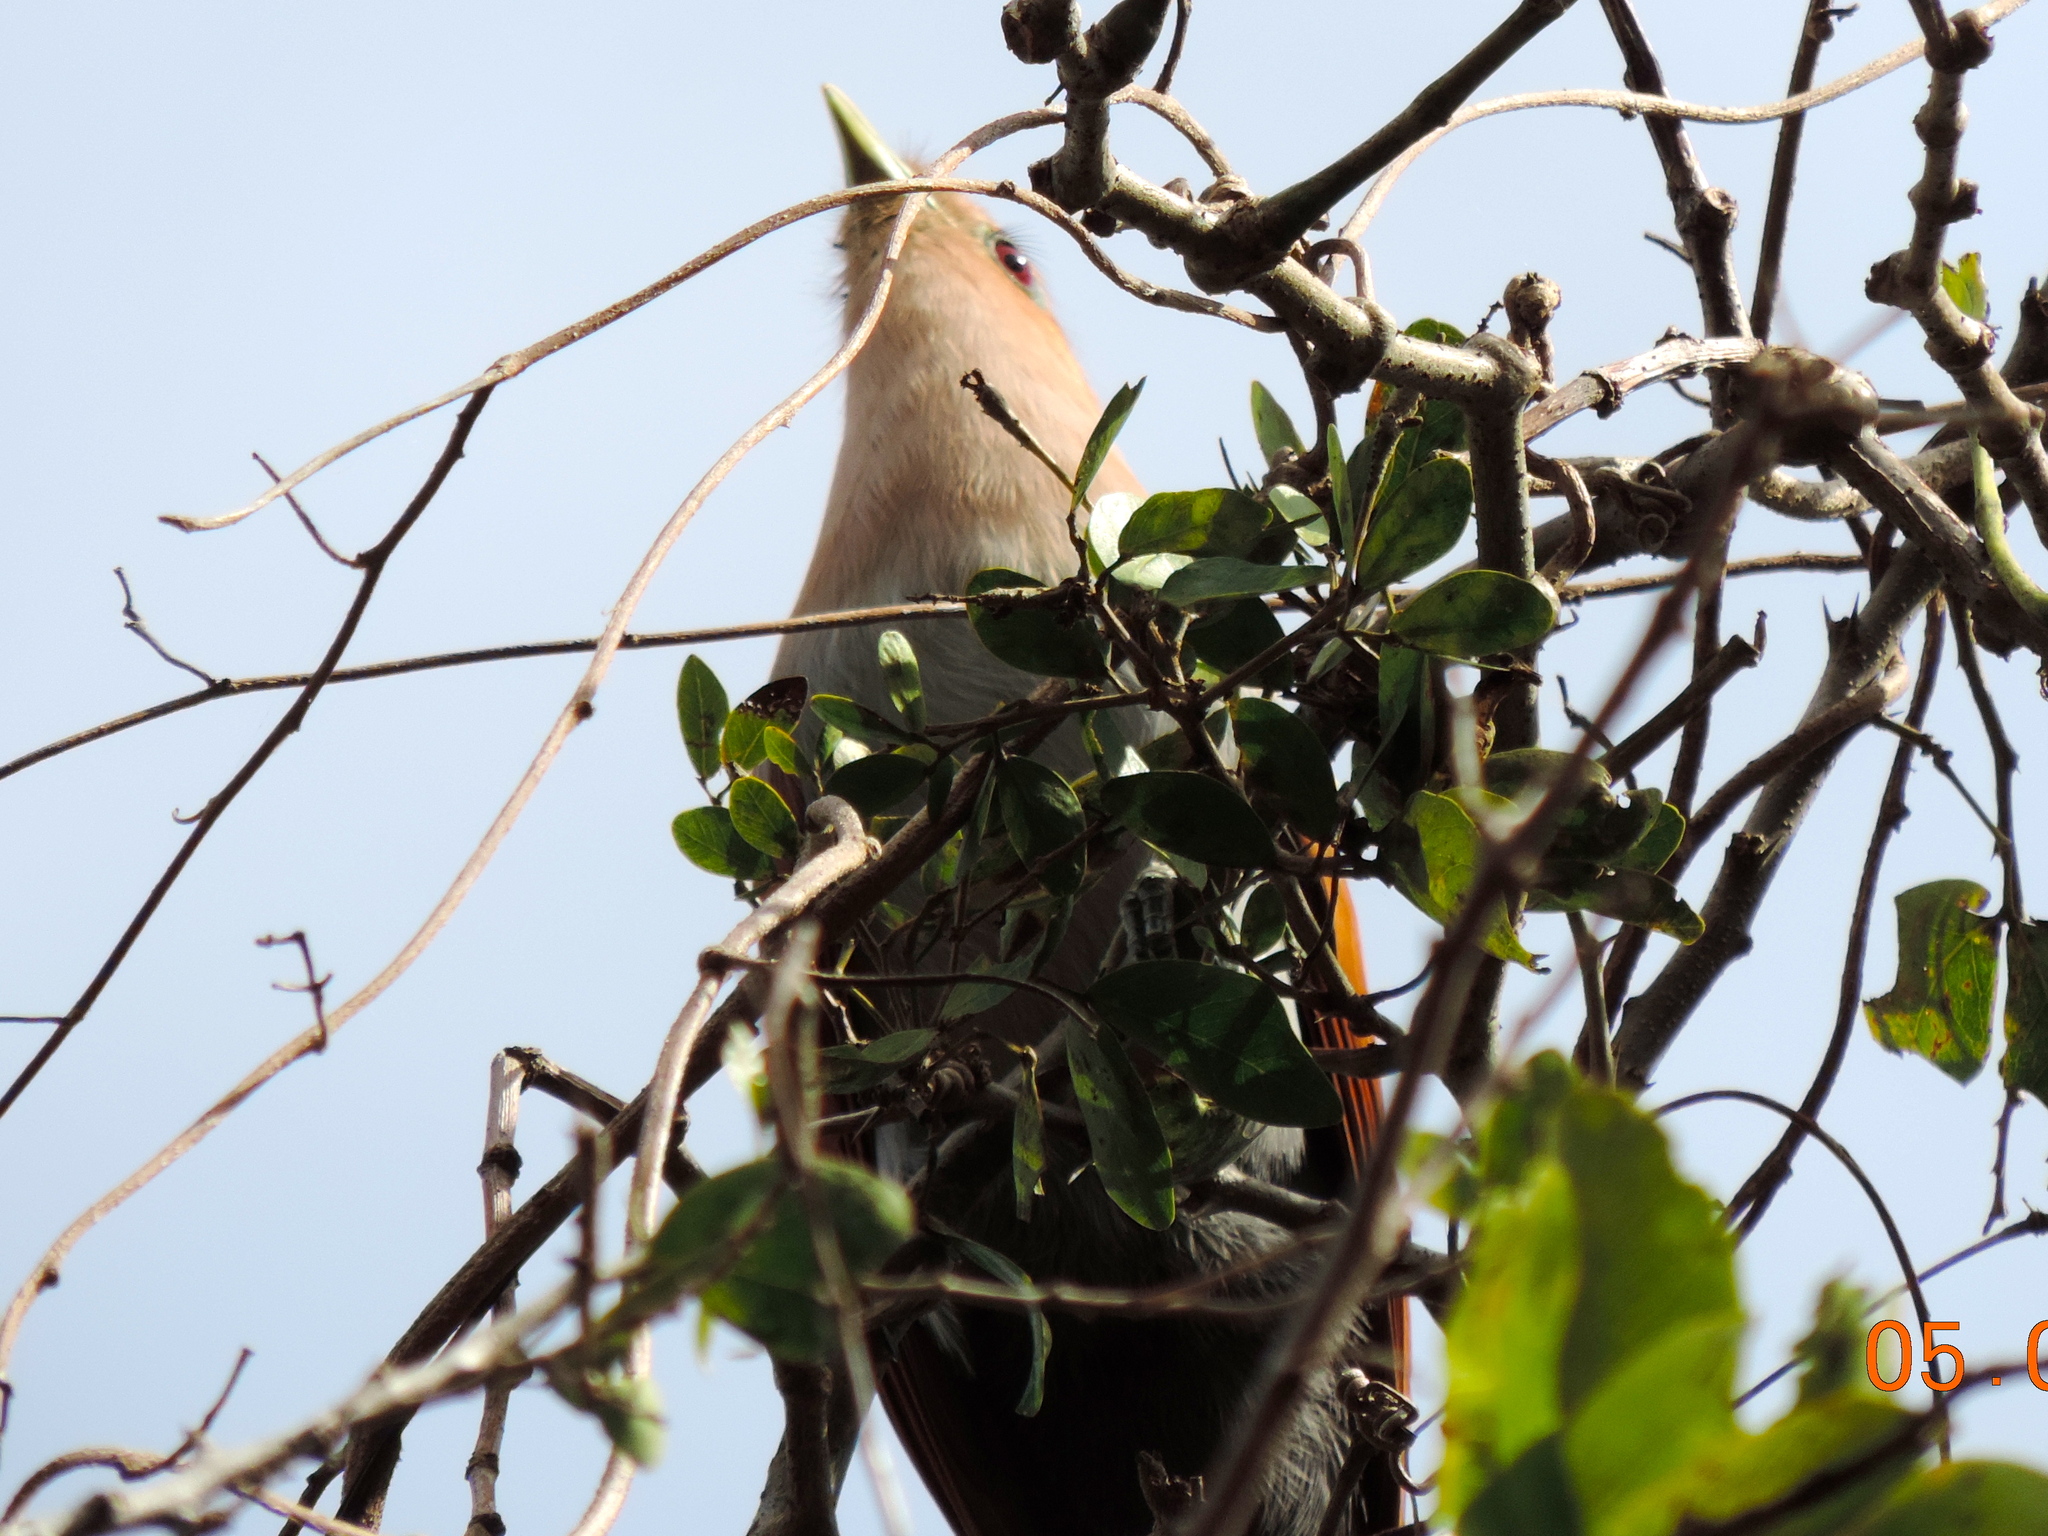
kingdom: Animalia
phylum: Chordata
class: Aves
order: Cuculiformes
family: Cuculidae
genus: Piaya
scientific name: Piaya cayana
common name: Squirrel cuckoo
